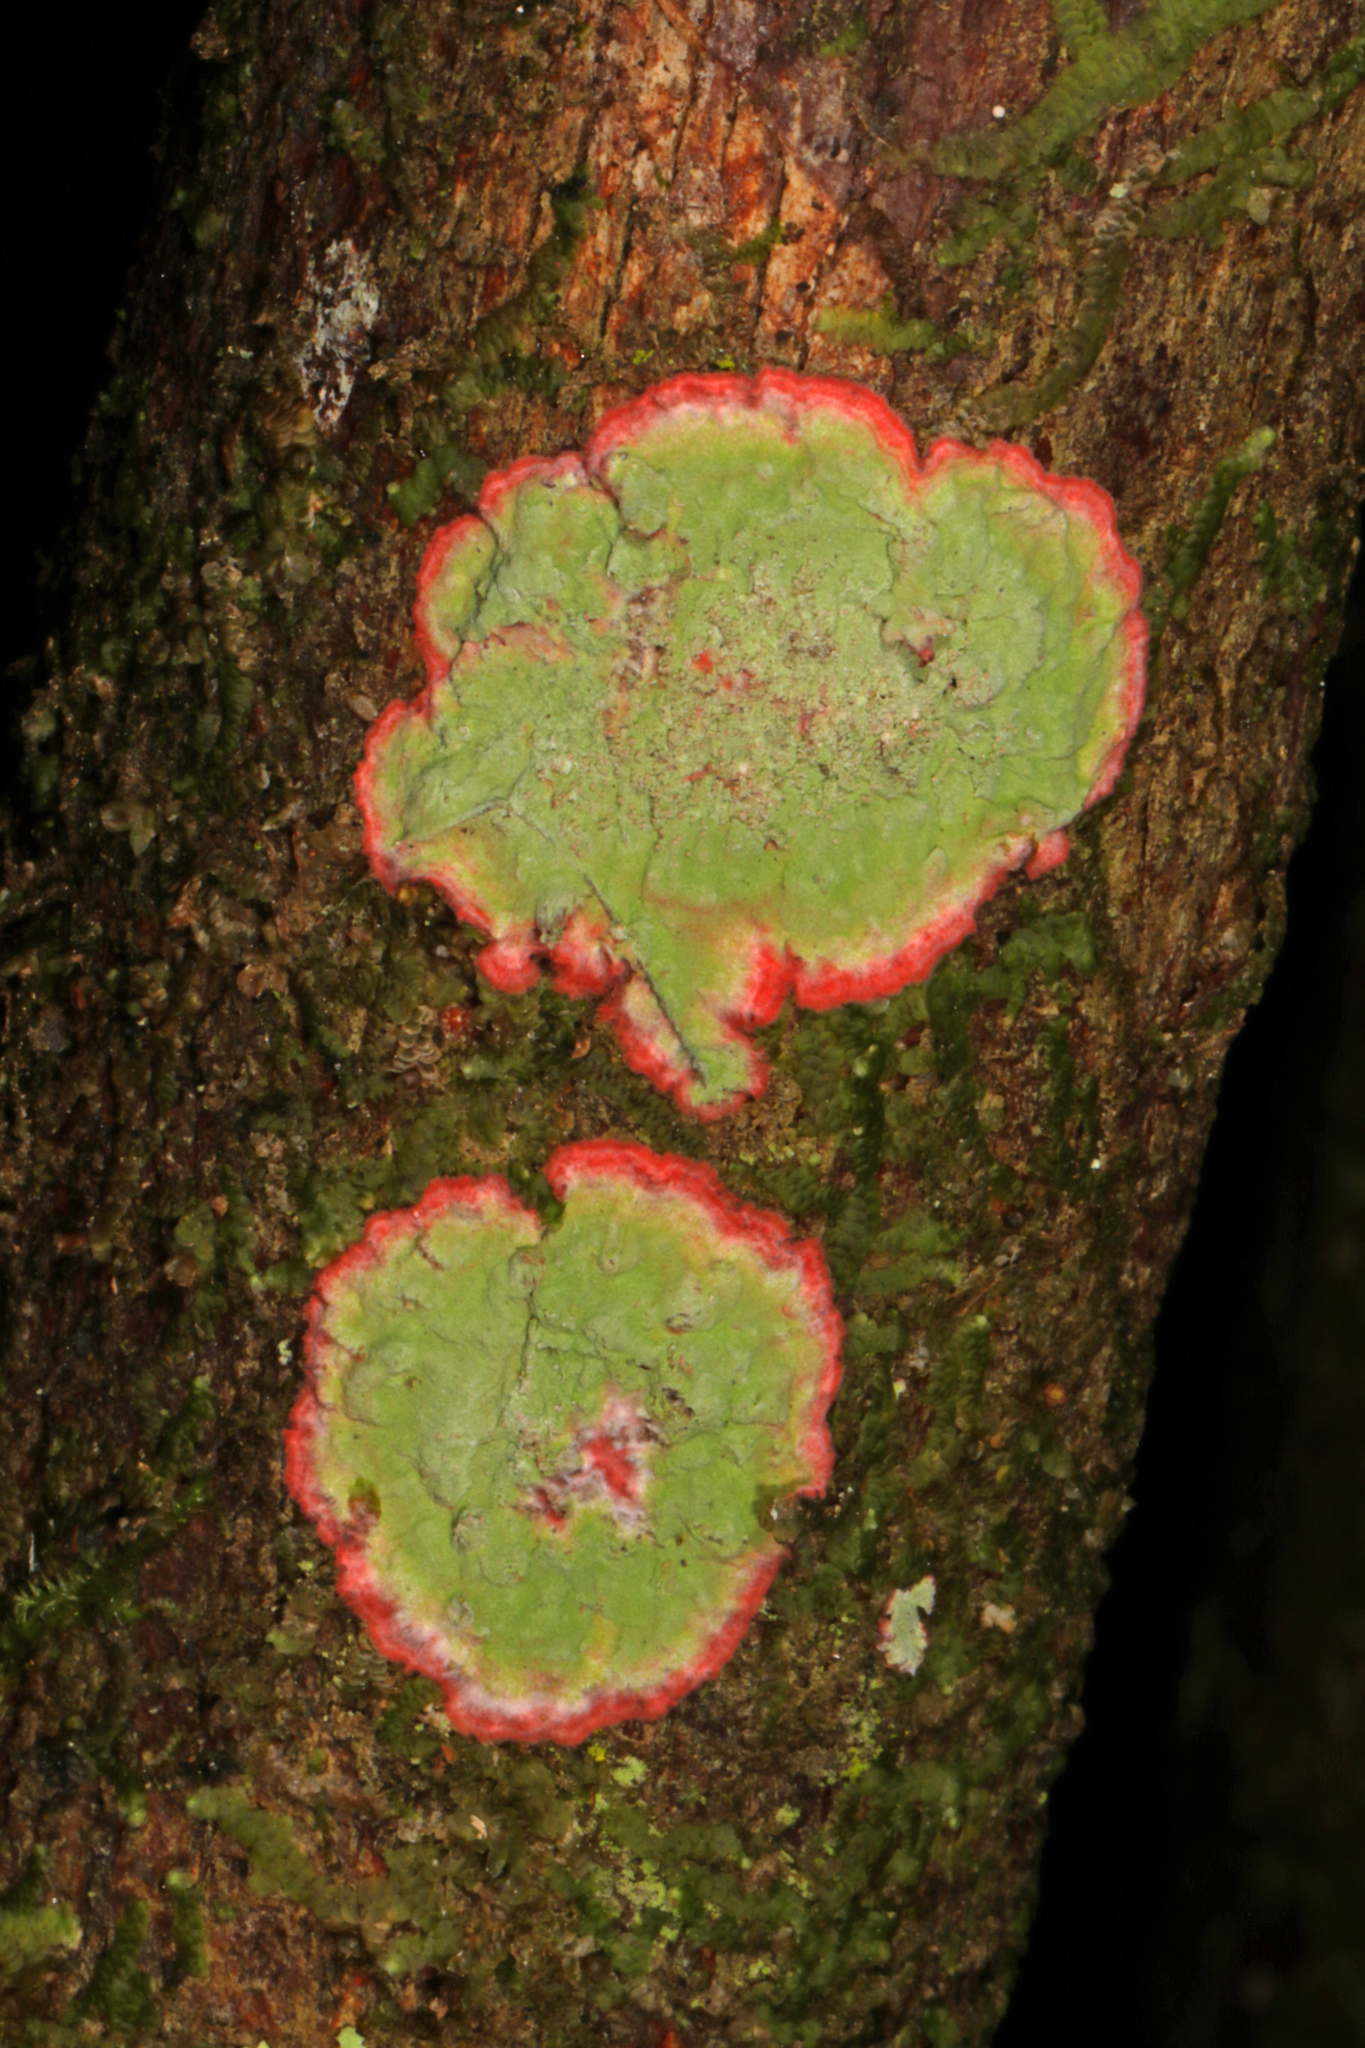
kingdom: Fungi
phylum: Ascomycota
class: Arthoniomycetes
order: Arthoniales
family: Arthoniaceae
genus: Herpothallon
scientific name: Herpothallon rubrocinctum
